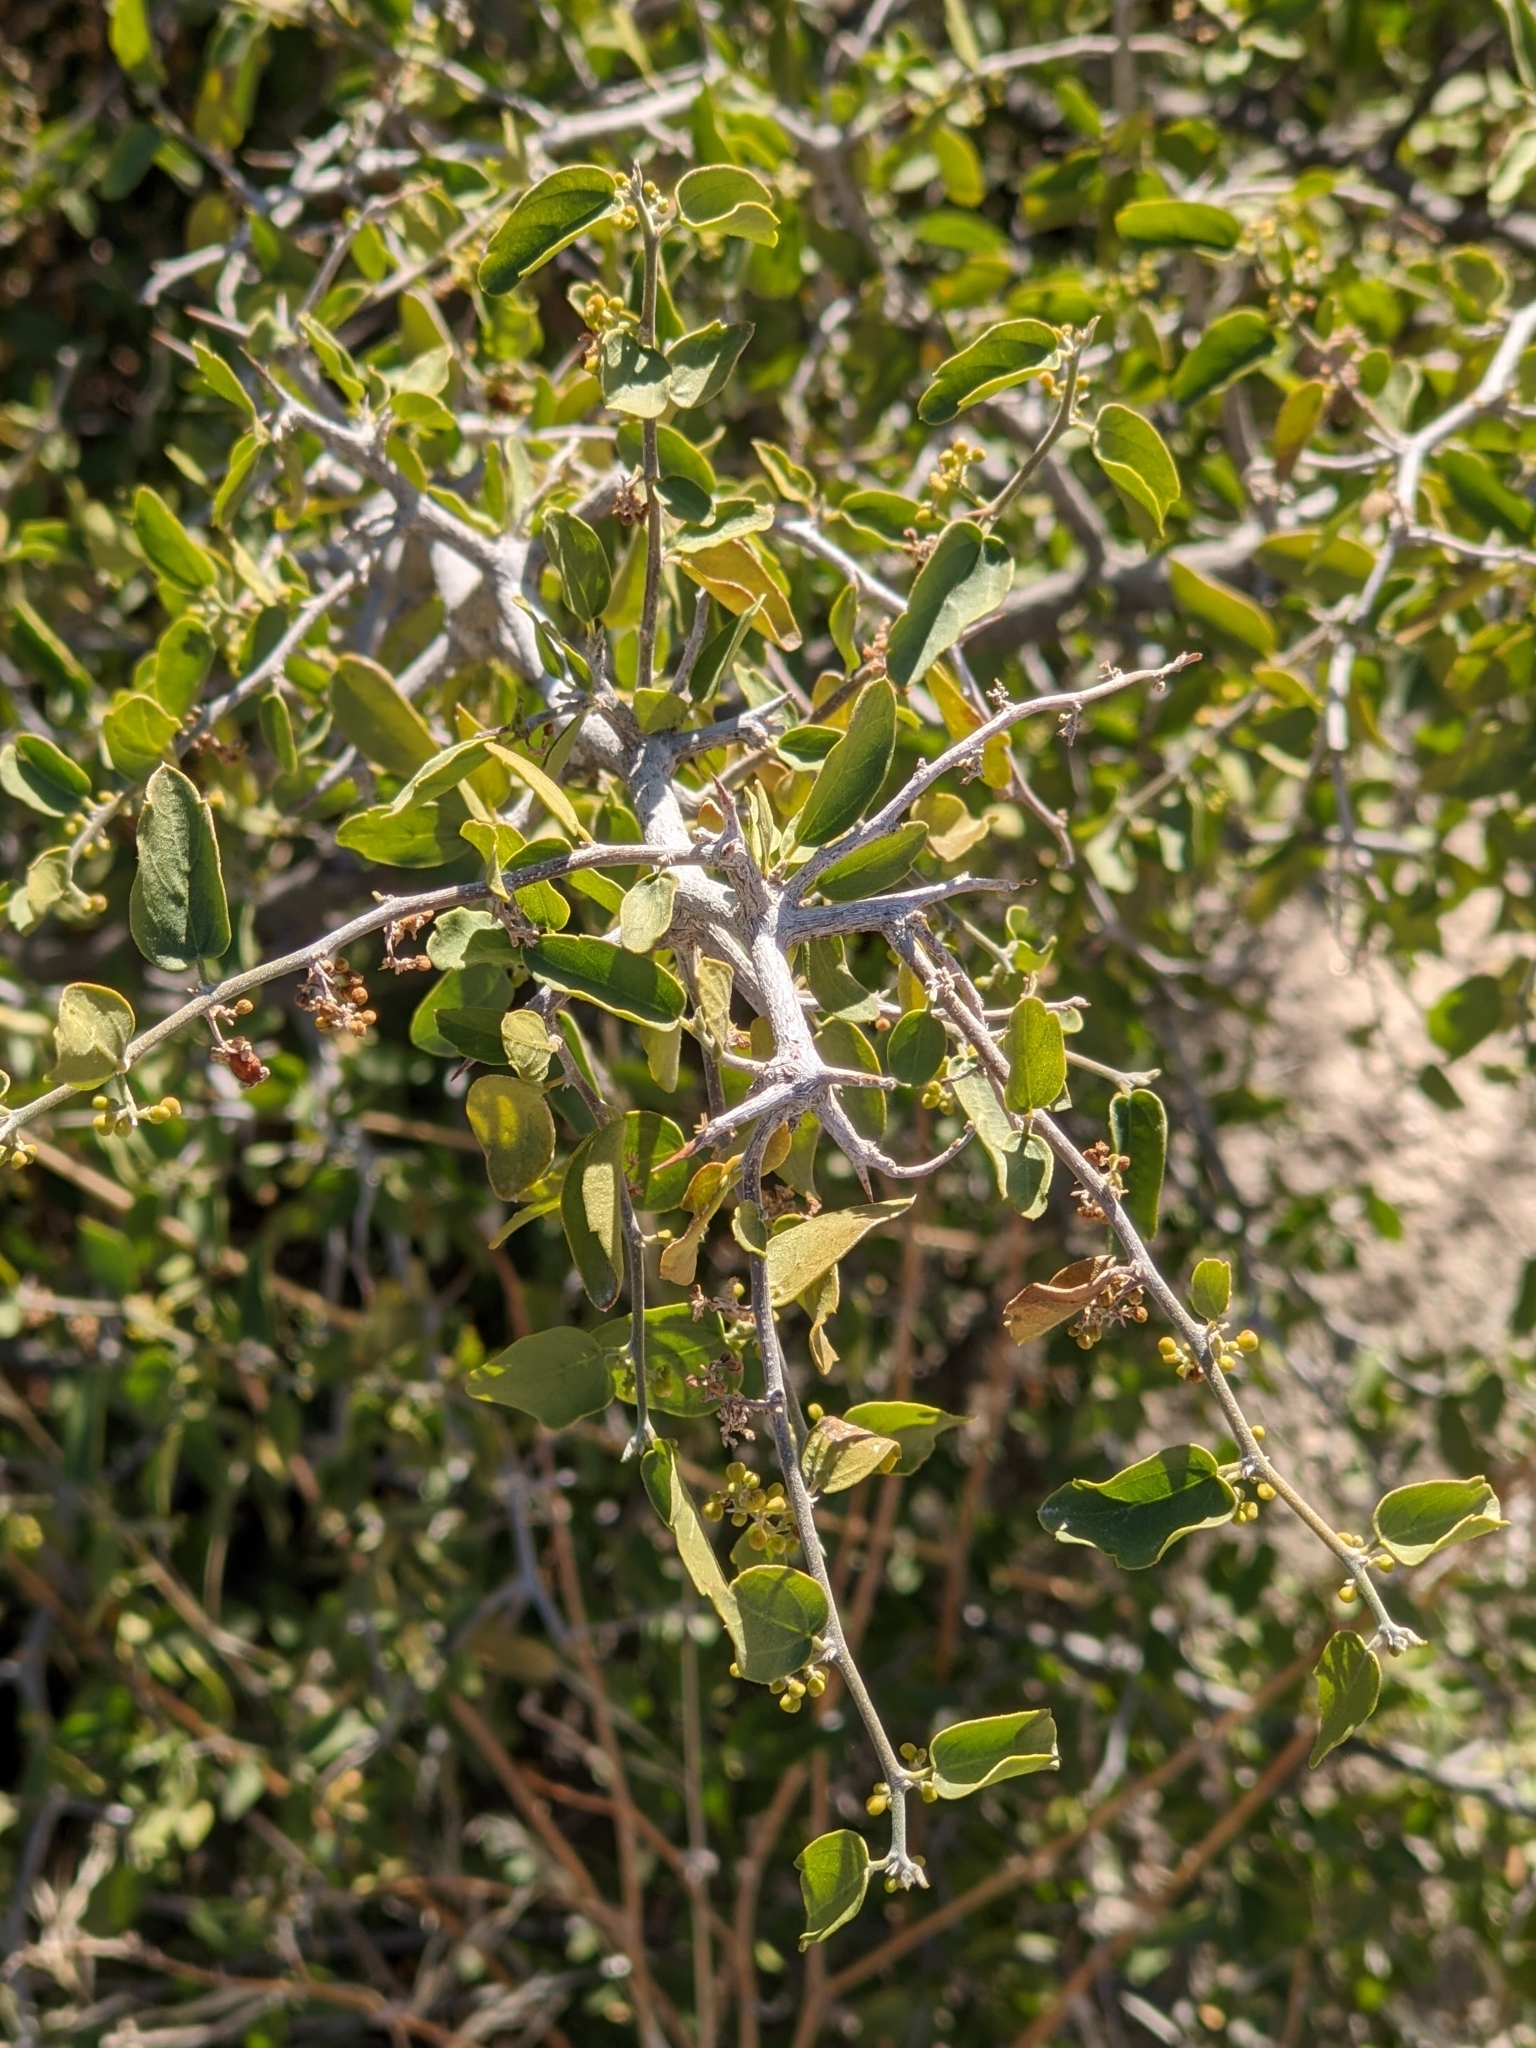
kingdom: Plantae
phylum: Tracheophyta
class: Magnoliopsida
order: Rosales
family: Cannabaceae
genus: Celtis
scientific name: Celtis pallida
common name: Desert hackberry
